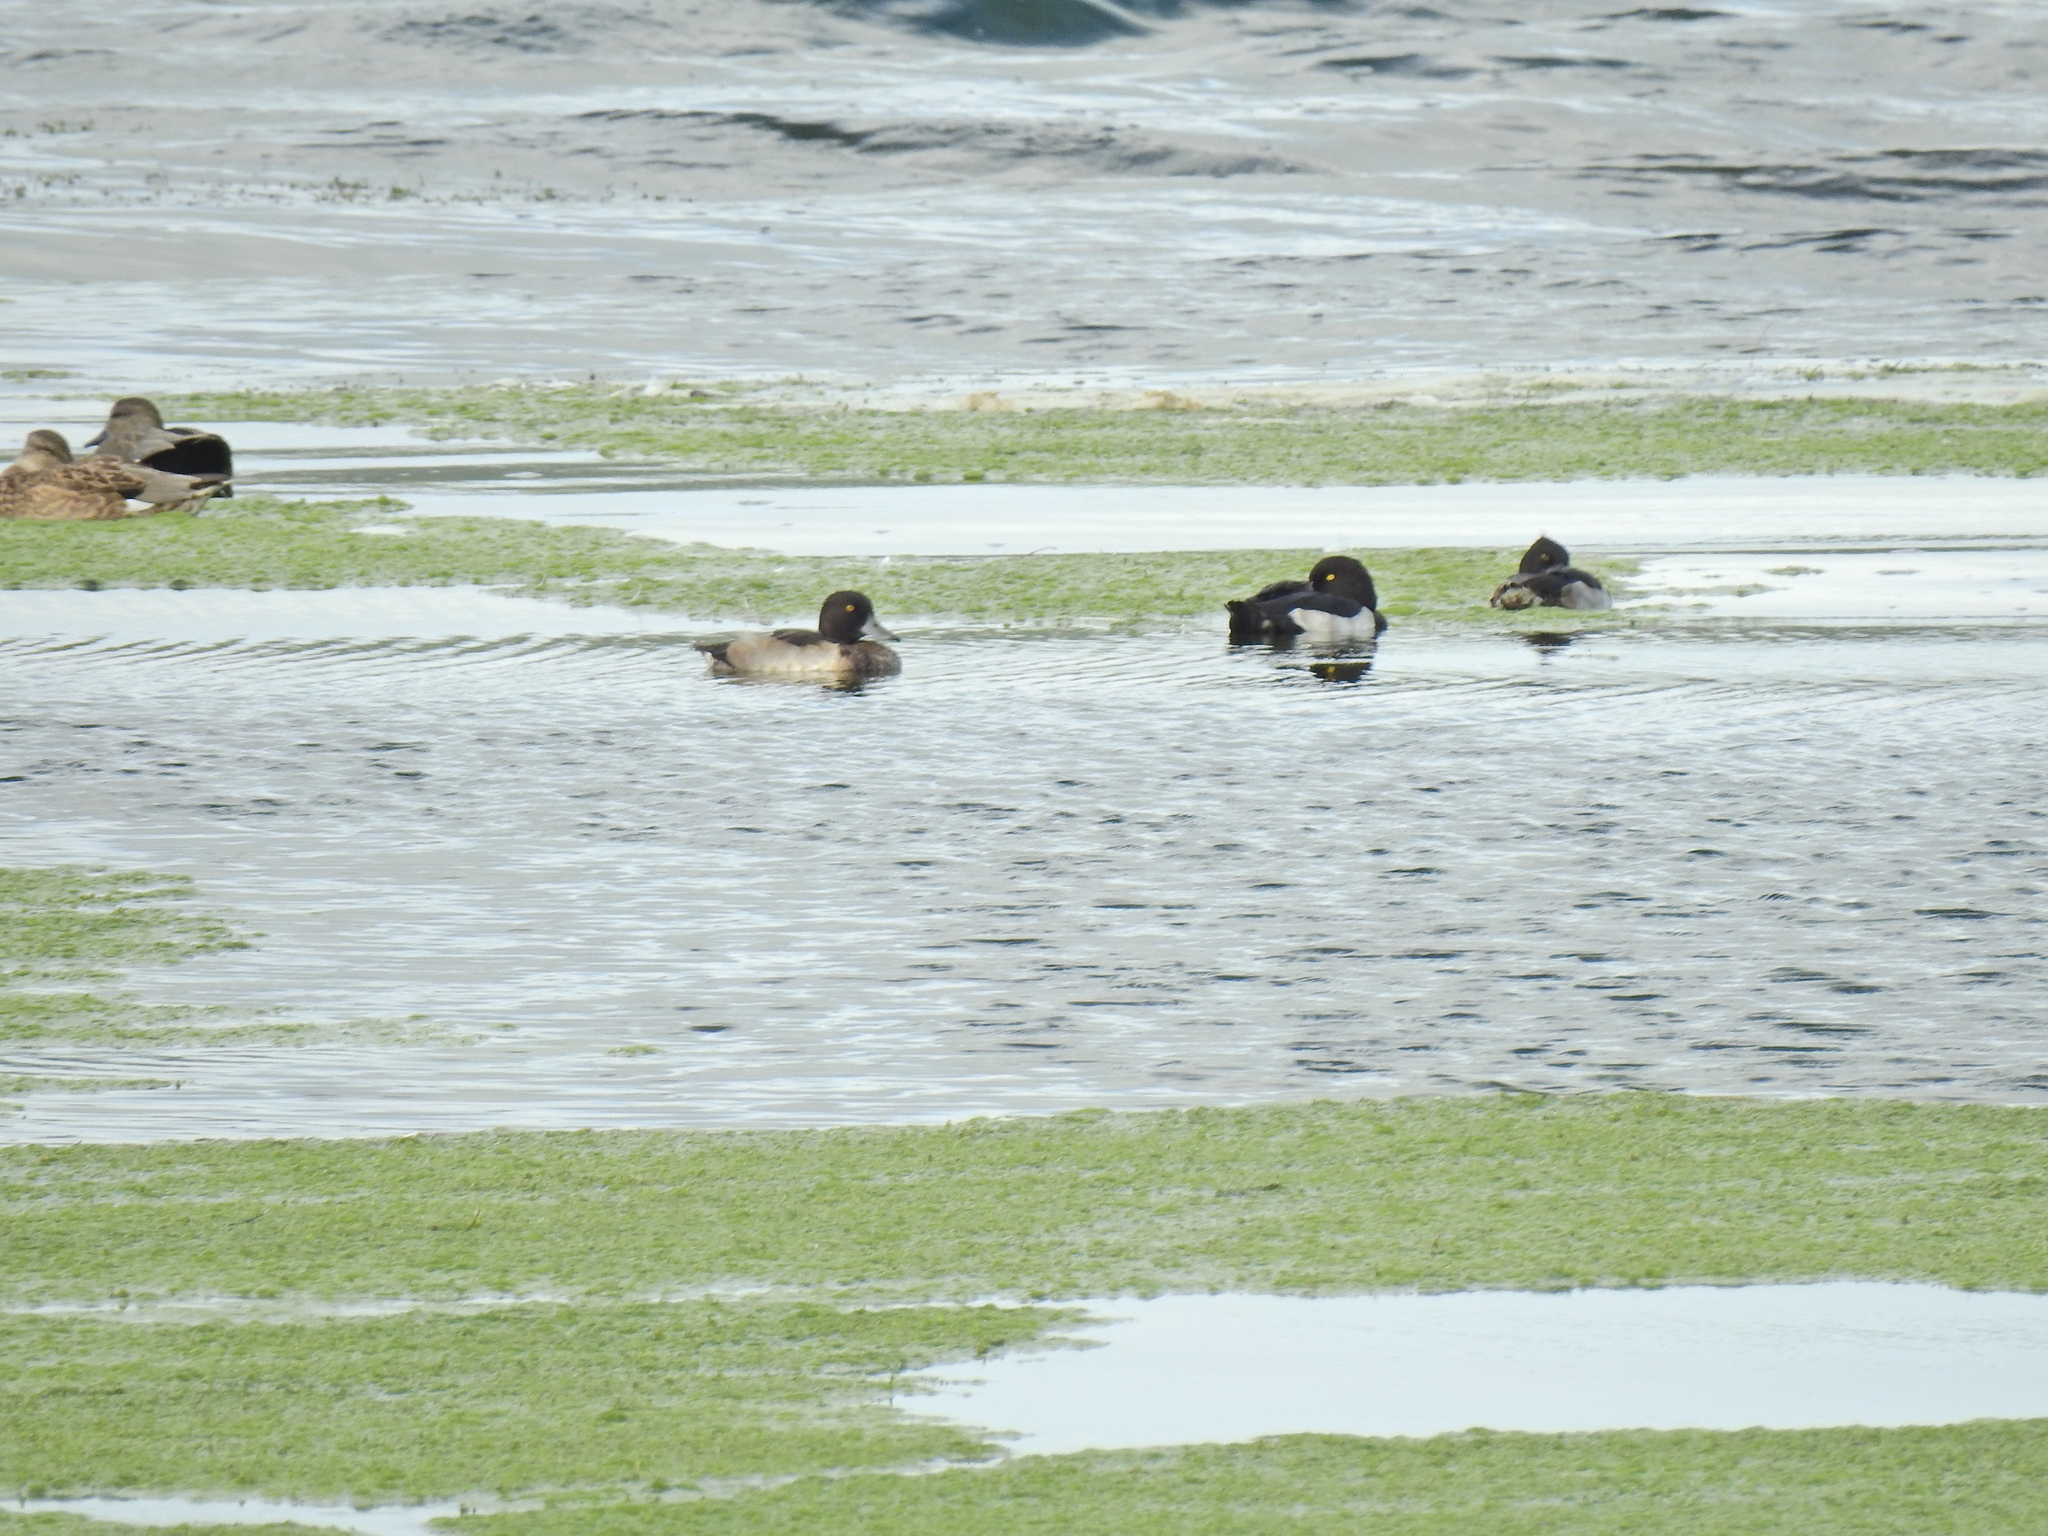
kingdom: Animalia
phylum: Chordata
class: Aves
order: Anseriformes
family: Anatidae
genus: Aythya
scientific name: Aythya fuligula
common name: Tufted duck
